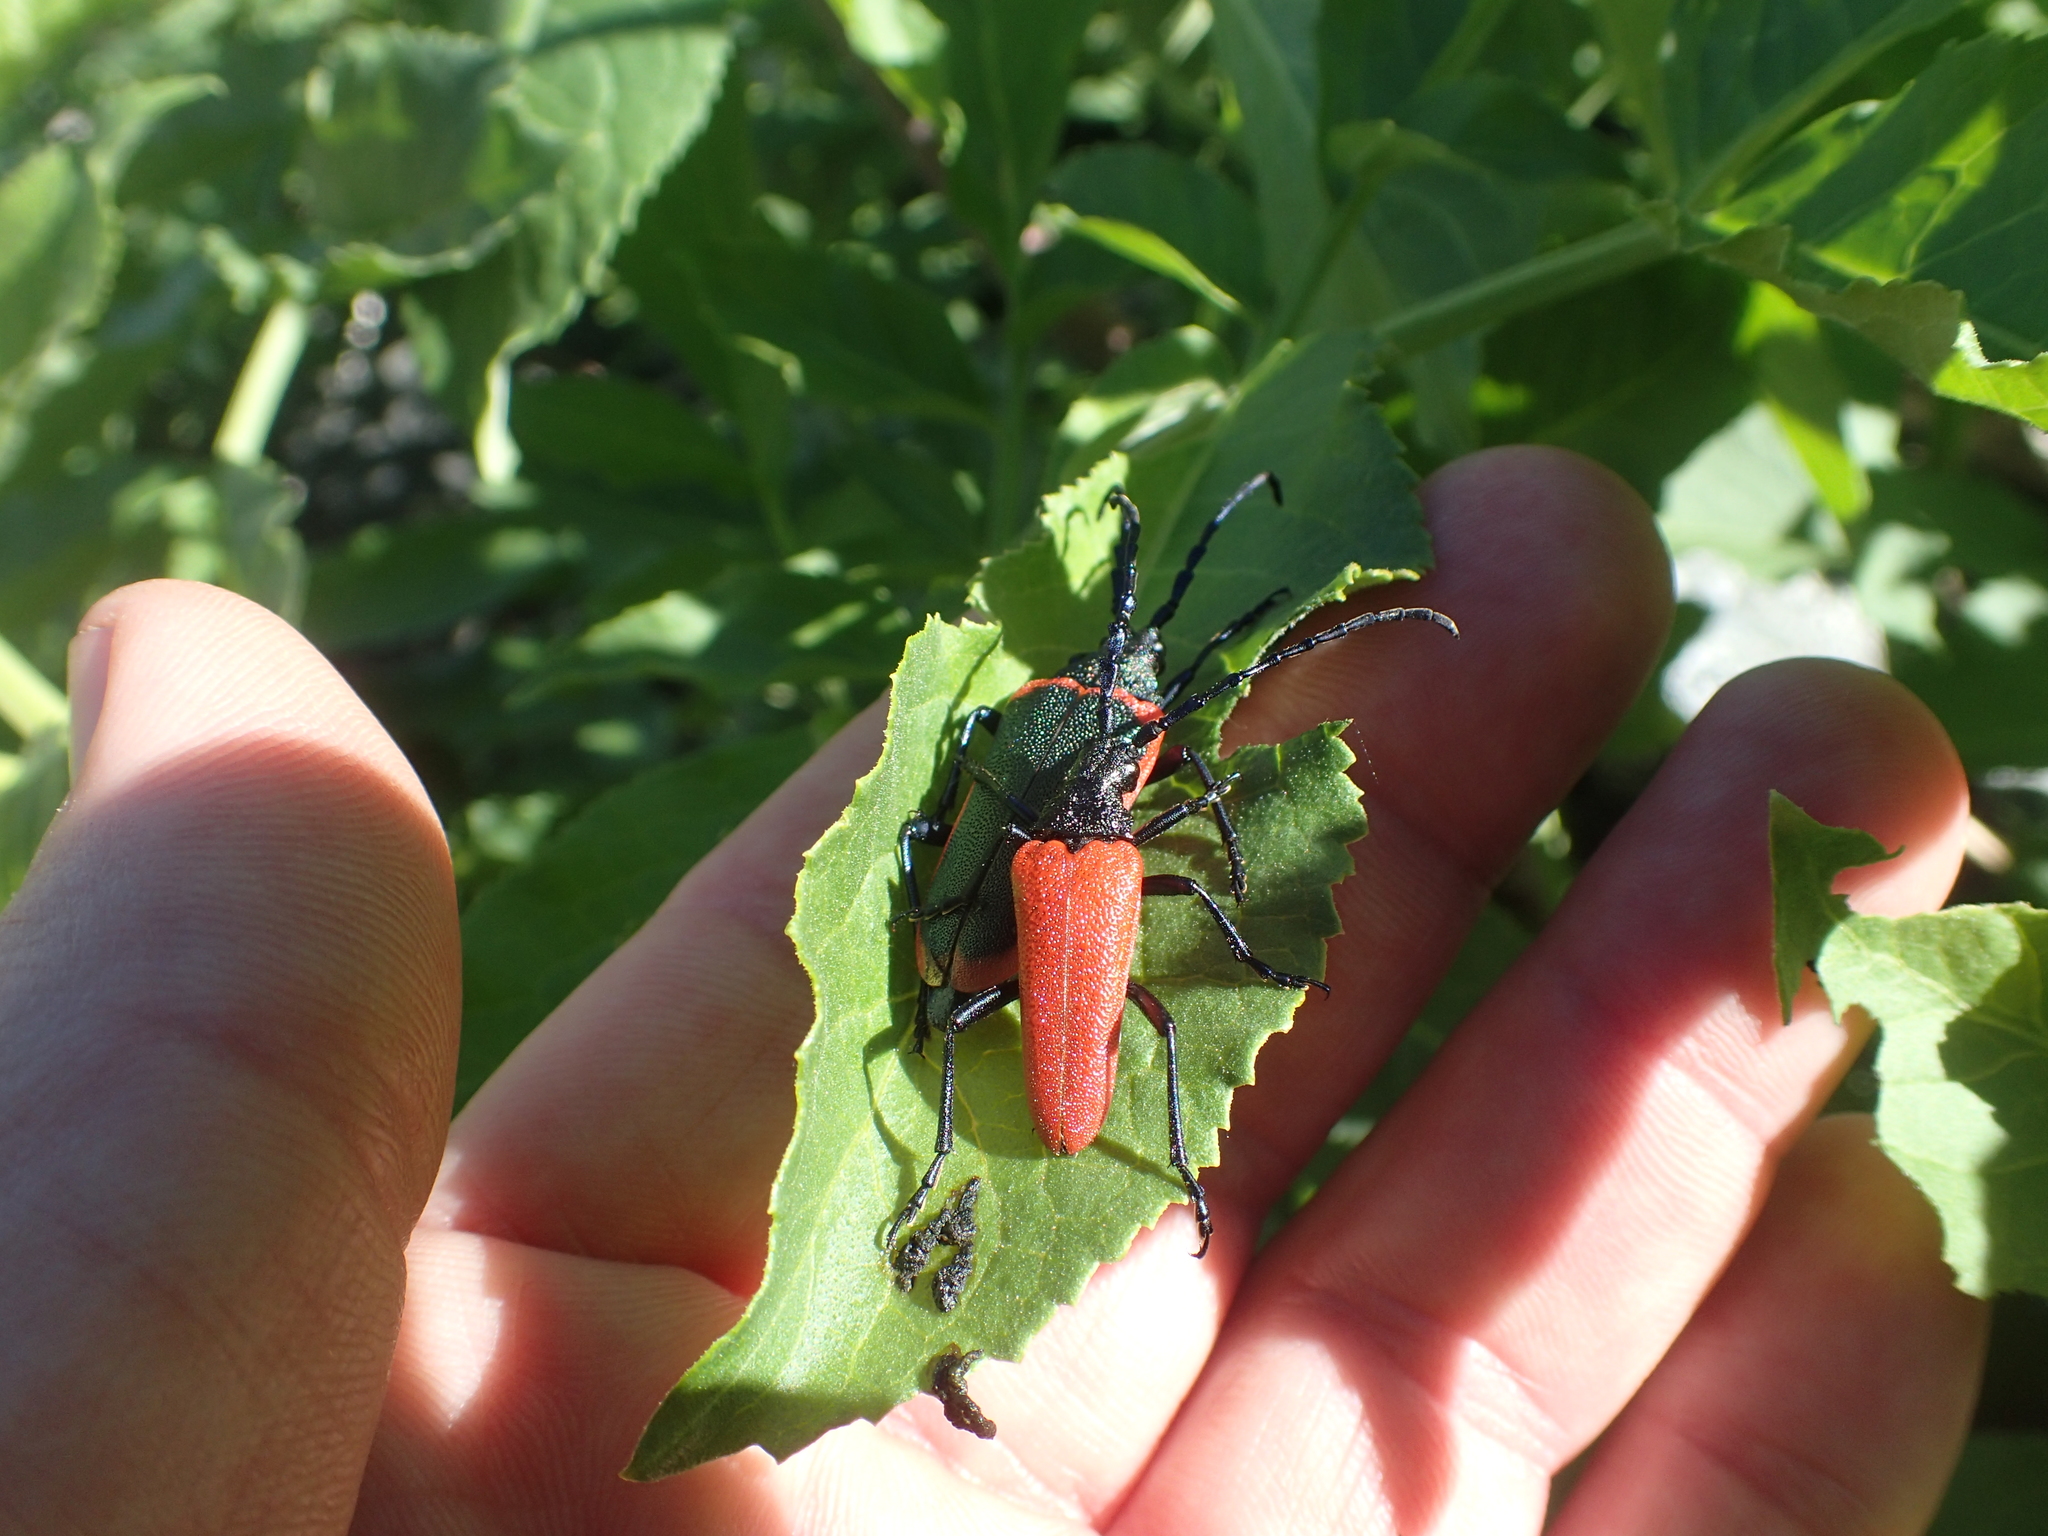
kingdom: Animalia
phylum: Arthropoda
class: Insecta
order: Coleoptera
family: Cerambycidae
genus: Desmocerus
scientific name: Desmocerus aureipennis
